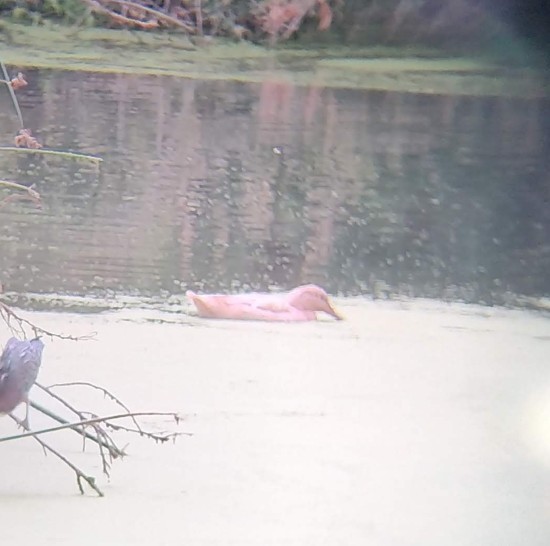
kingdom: Animalia
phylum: Chordata
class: Aves
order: Anseriformes
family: Anatidae
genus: Anas
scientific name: Anas platyrhynchos
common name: Mallard
